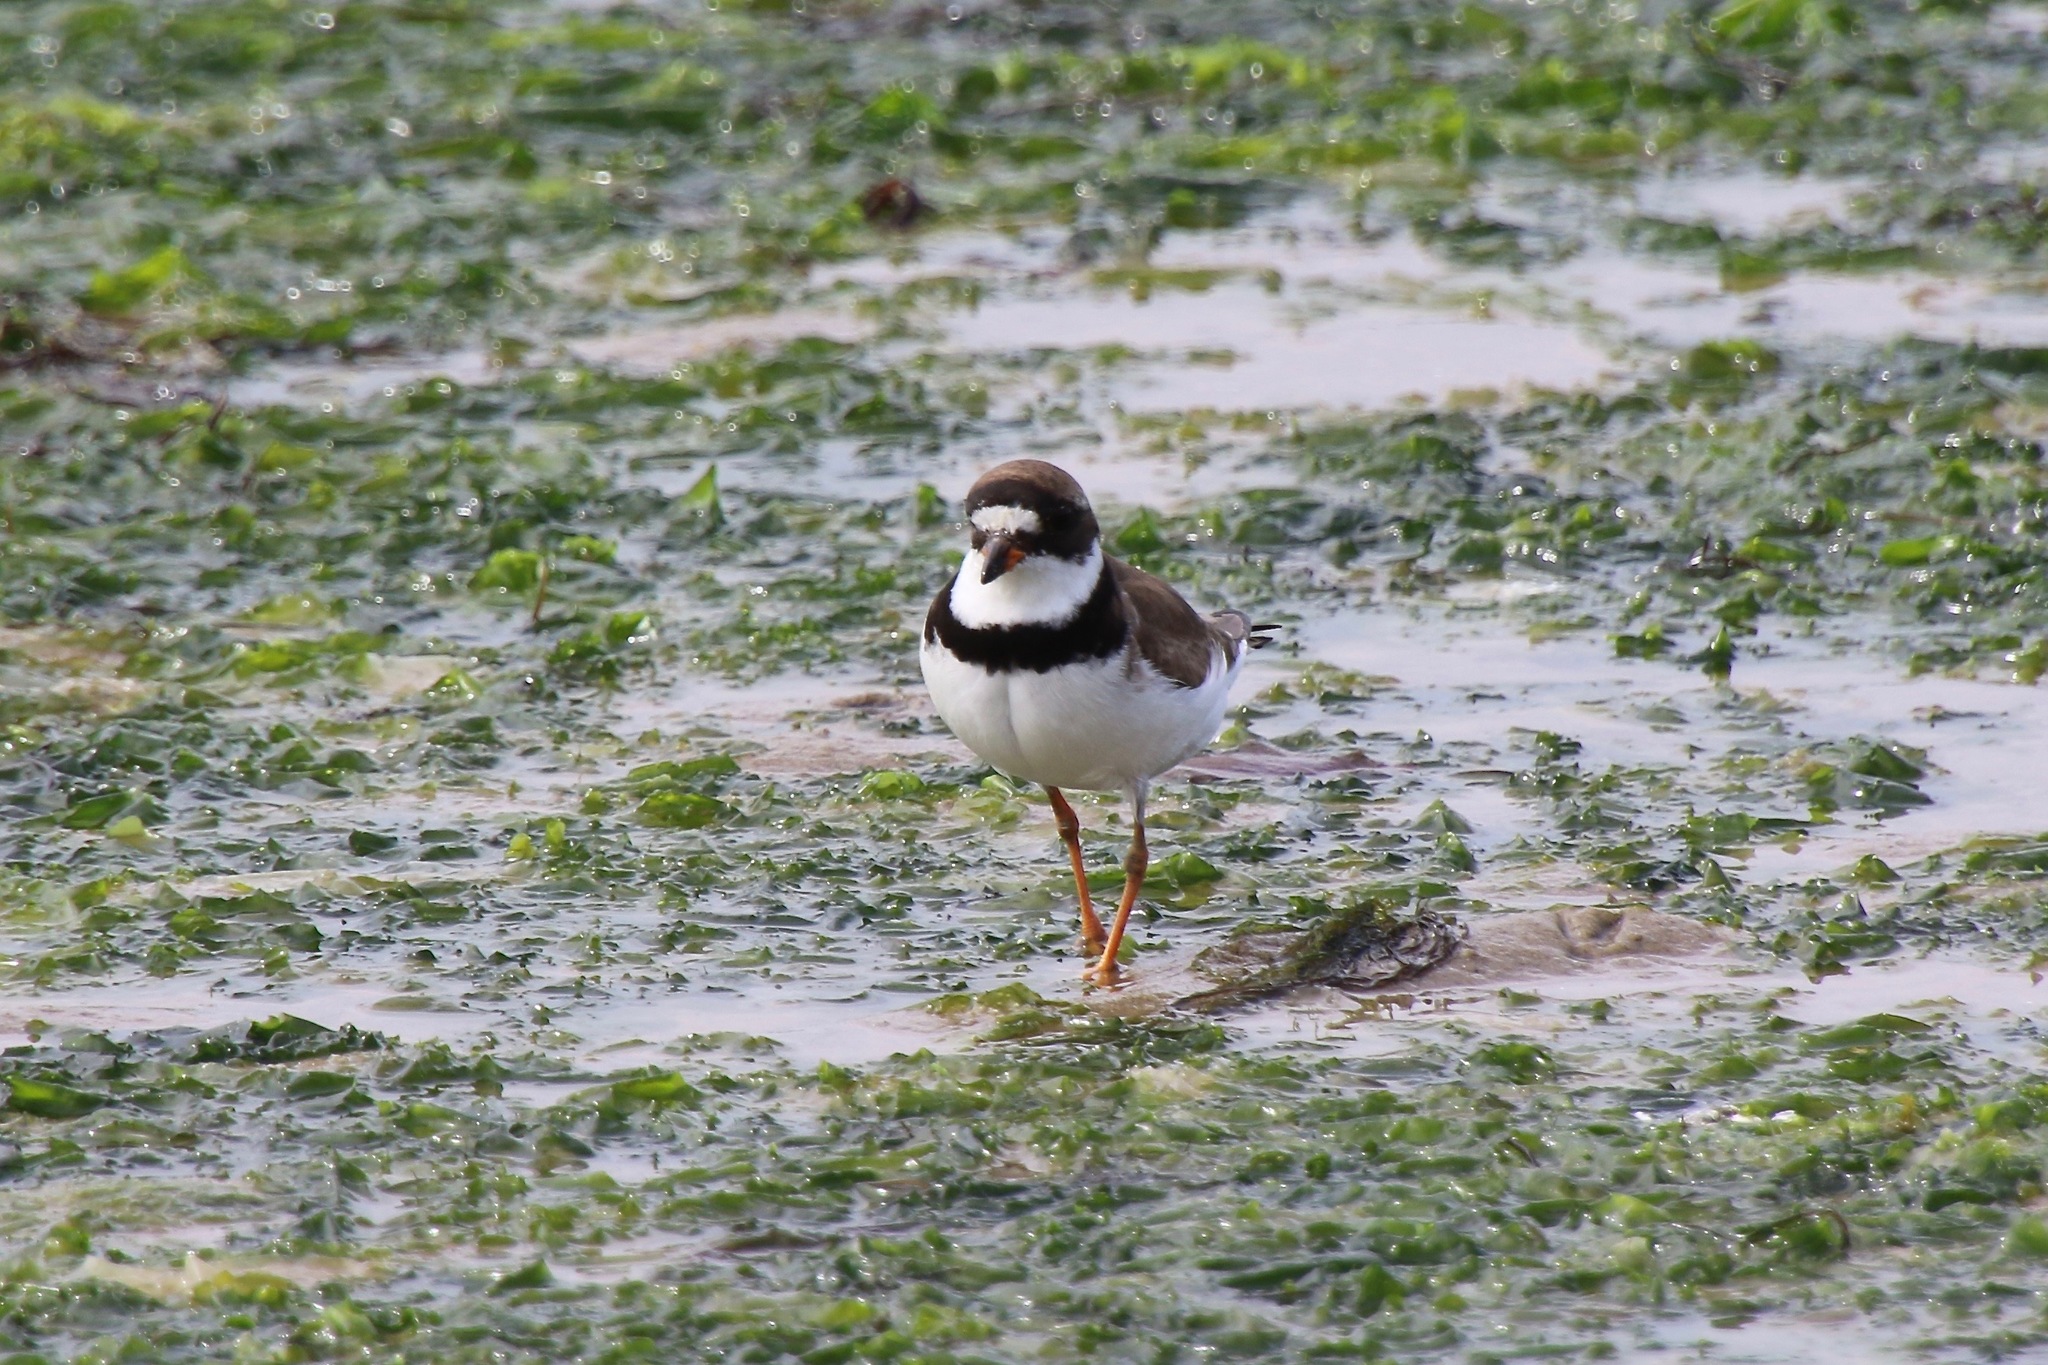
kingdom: Animalia
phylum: Chordata
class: Aves
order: Charadriiformes
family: Charadriidae
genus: Charadrius
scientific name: Charadrius semipalmatus
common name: Semipalmated plover
